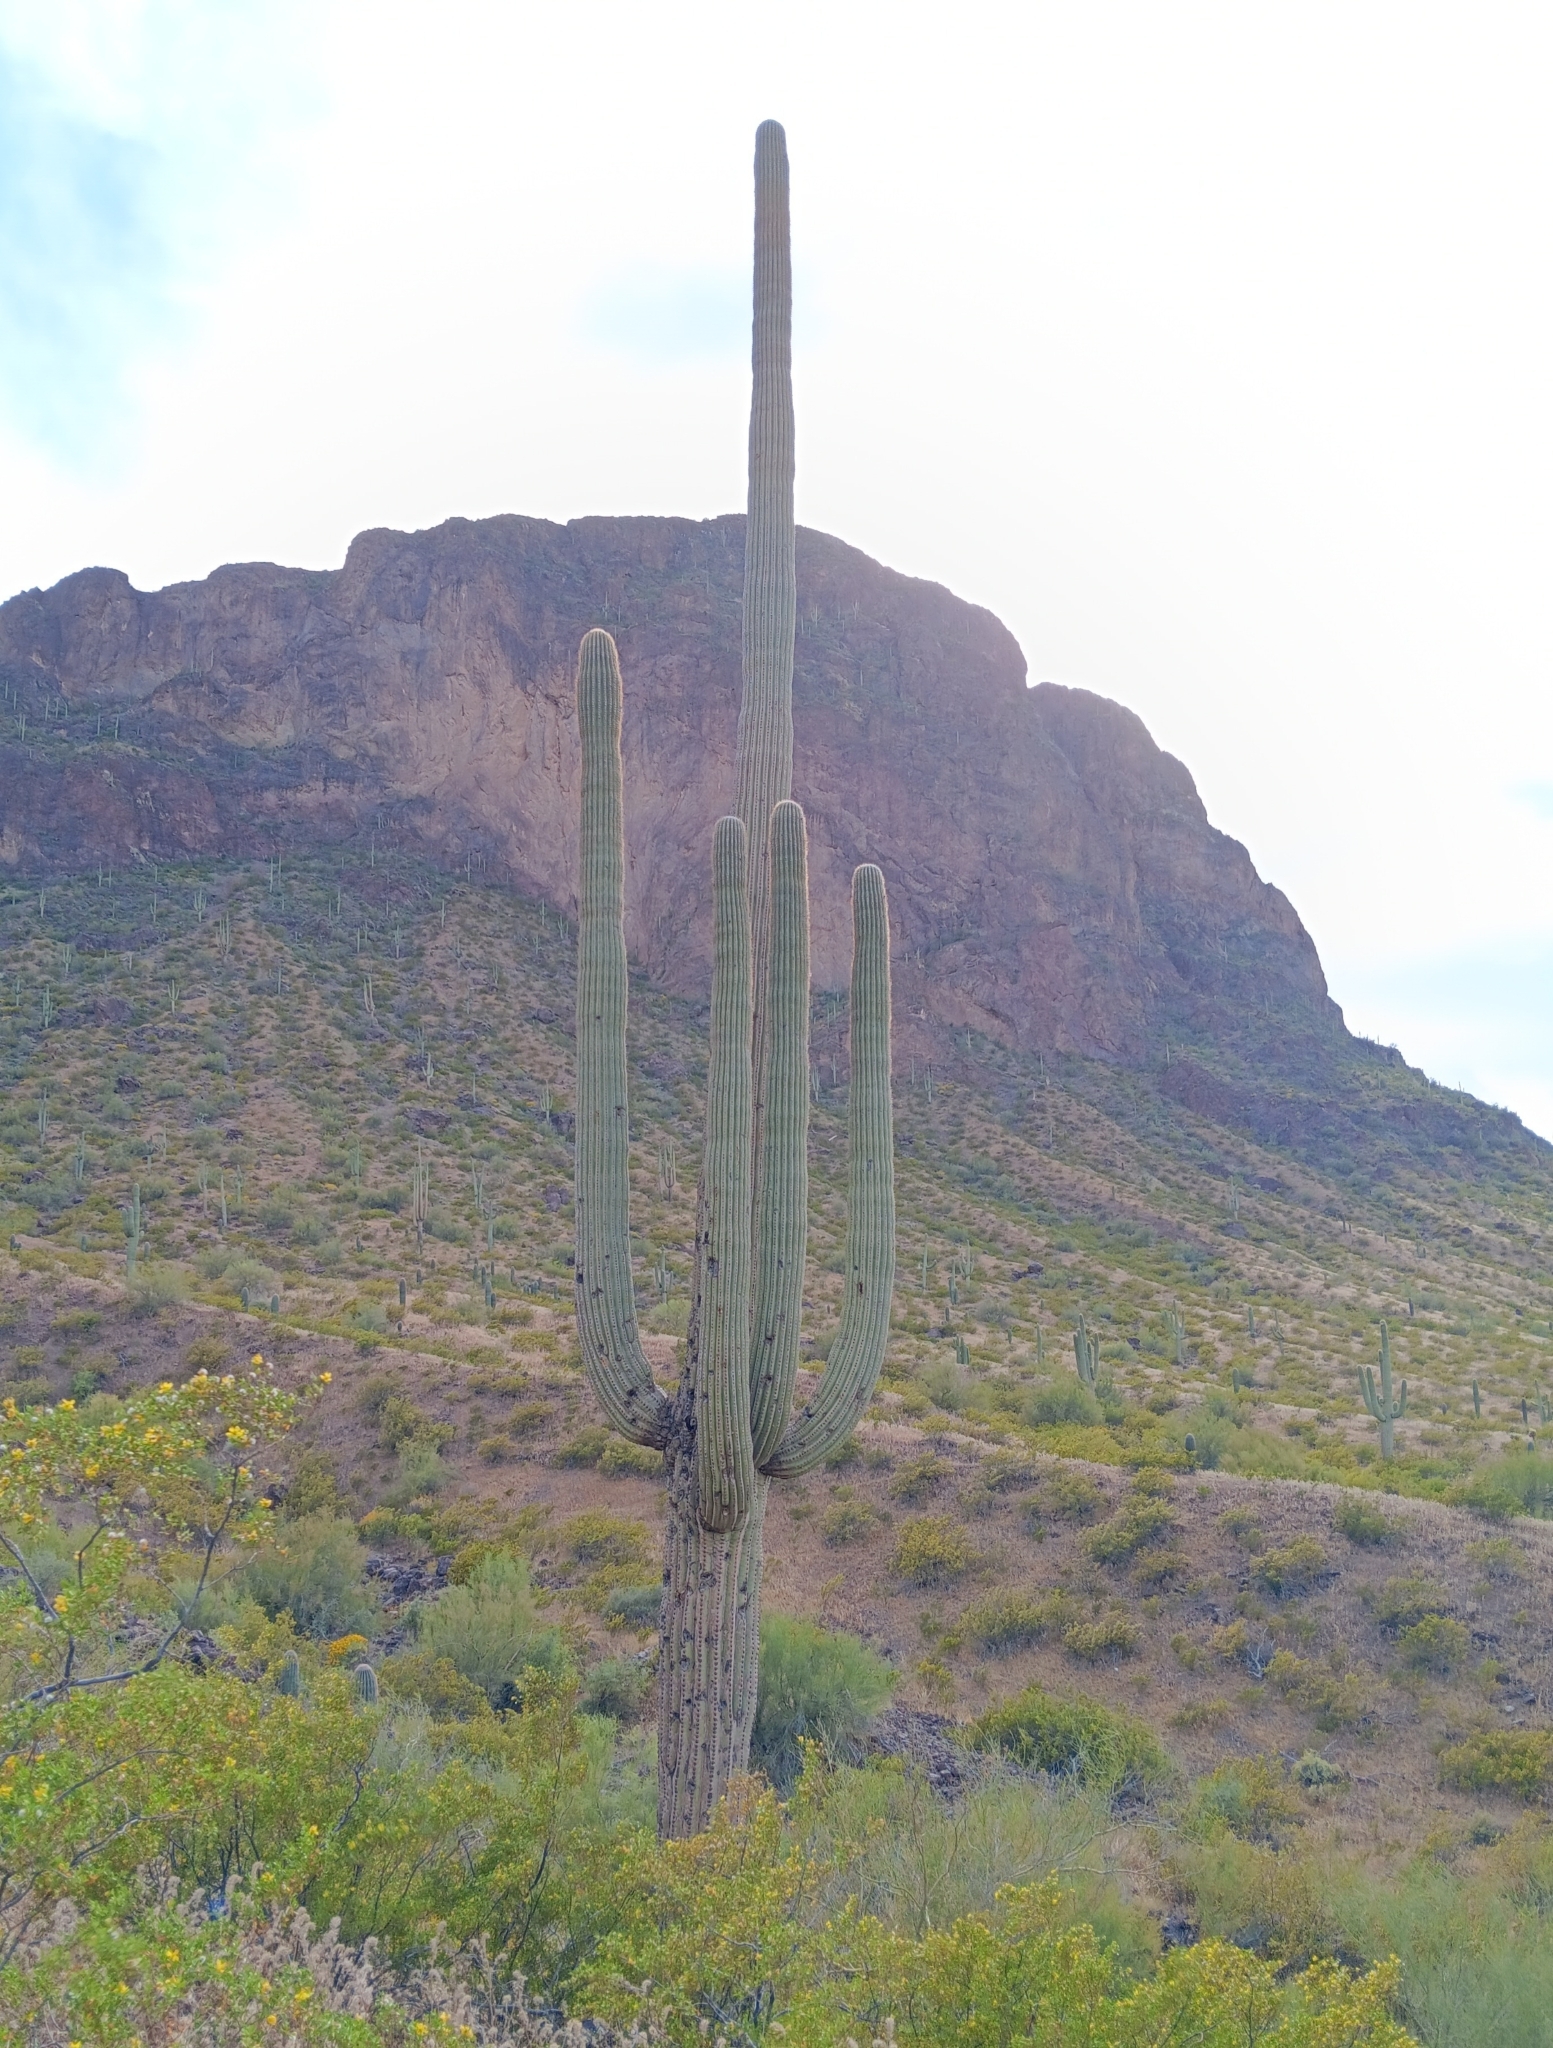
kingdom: Plantae
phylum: Tracheophyta
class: Magnoliopsida
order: Caryophyllales
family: Cactaceae
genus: Carnegiea
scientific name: Carnegiea gigantea
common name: Saguaro
